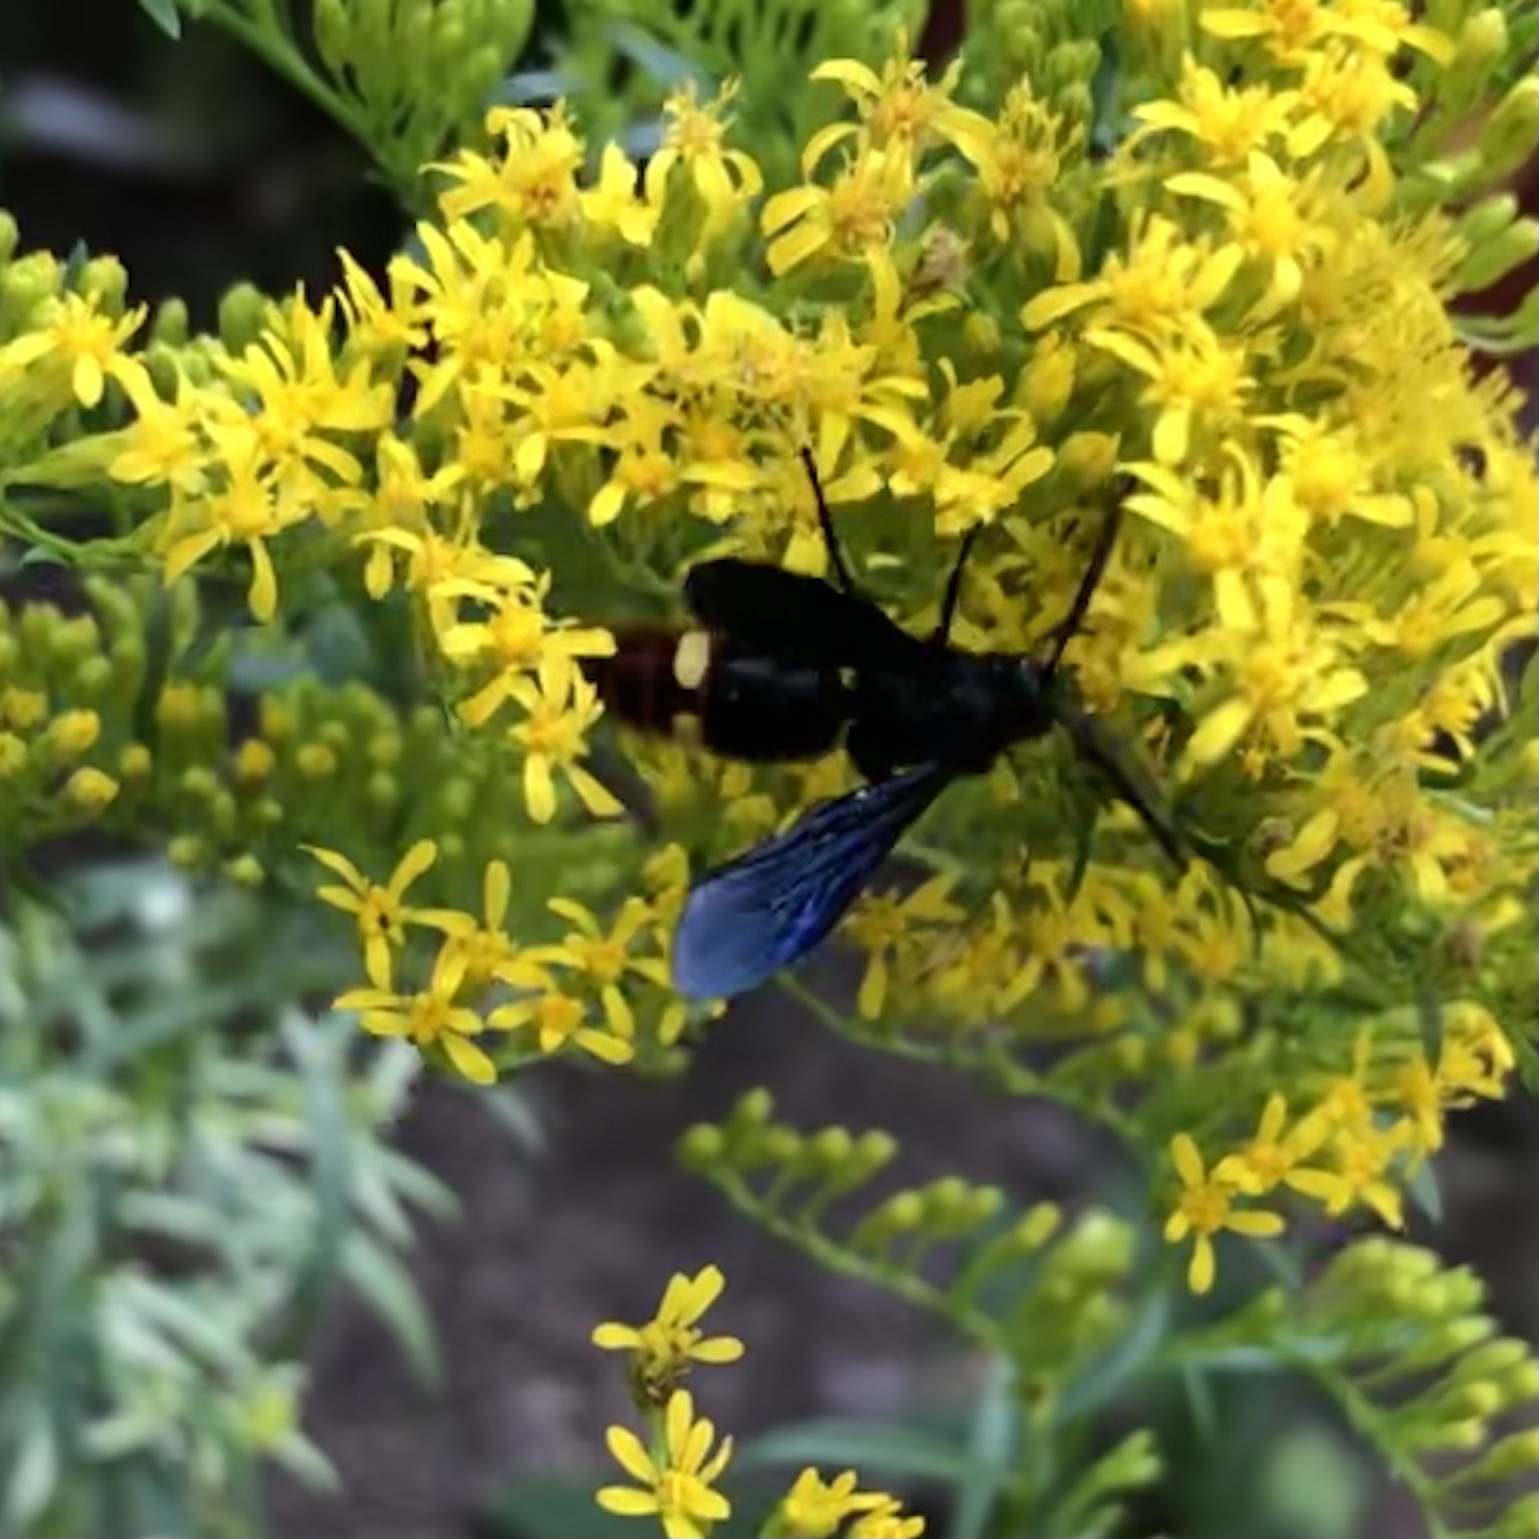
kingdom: Animalia
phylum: Arthropoda
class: Insecta
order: Hymenoptera
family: Scoliidae
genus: Scolia
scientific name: Scolia dubia
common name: Blue-winged scoliid wasp
